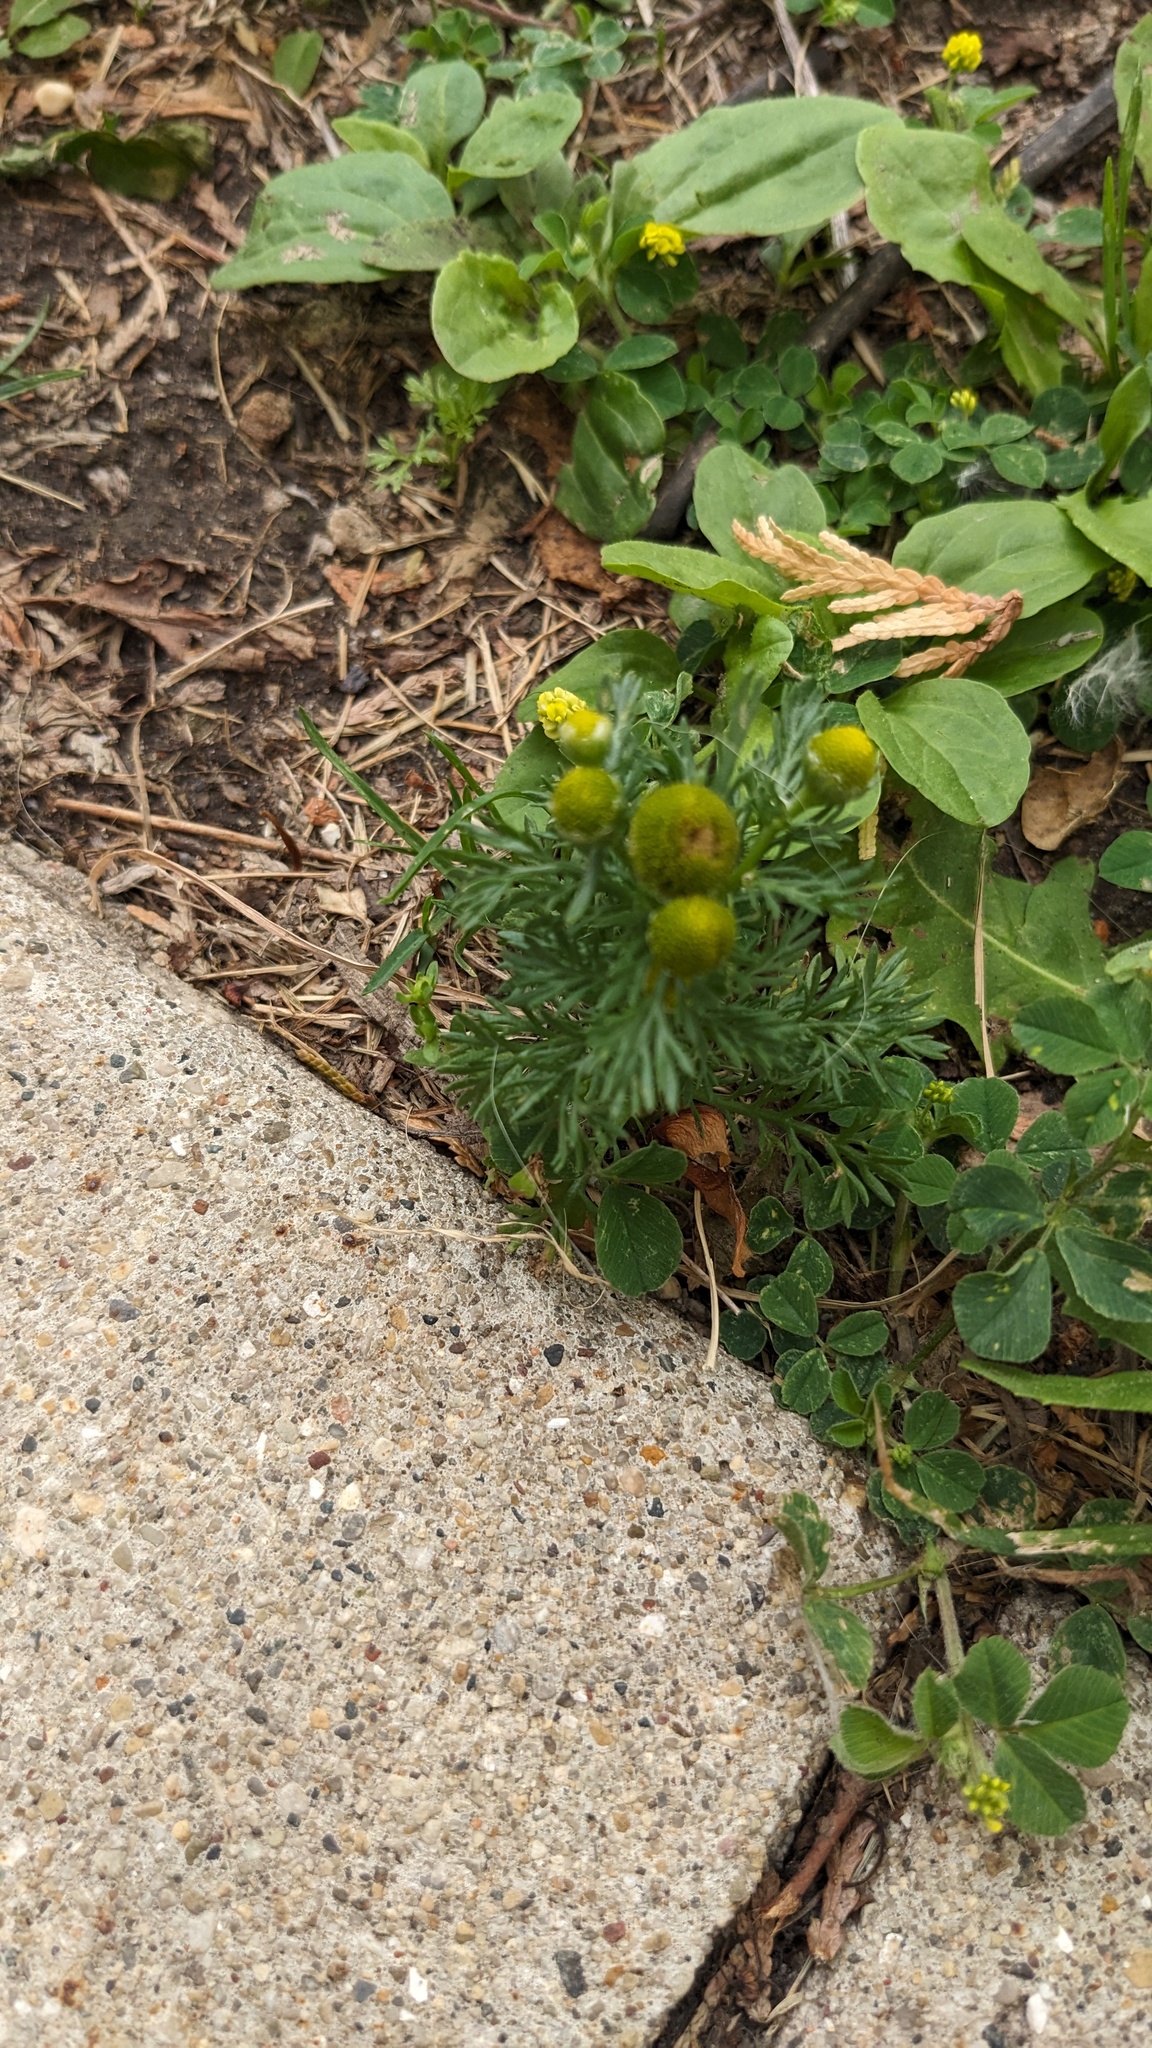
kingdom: Plantae
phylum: Tracheophyta
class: Magnoliopsida
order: Asterales
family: Asteraceae
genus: Matricaria
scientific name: Matricaria discoidea
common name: Disc mayweed
